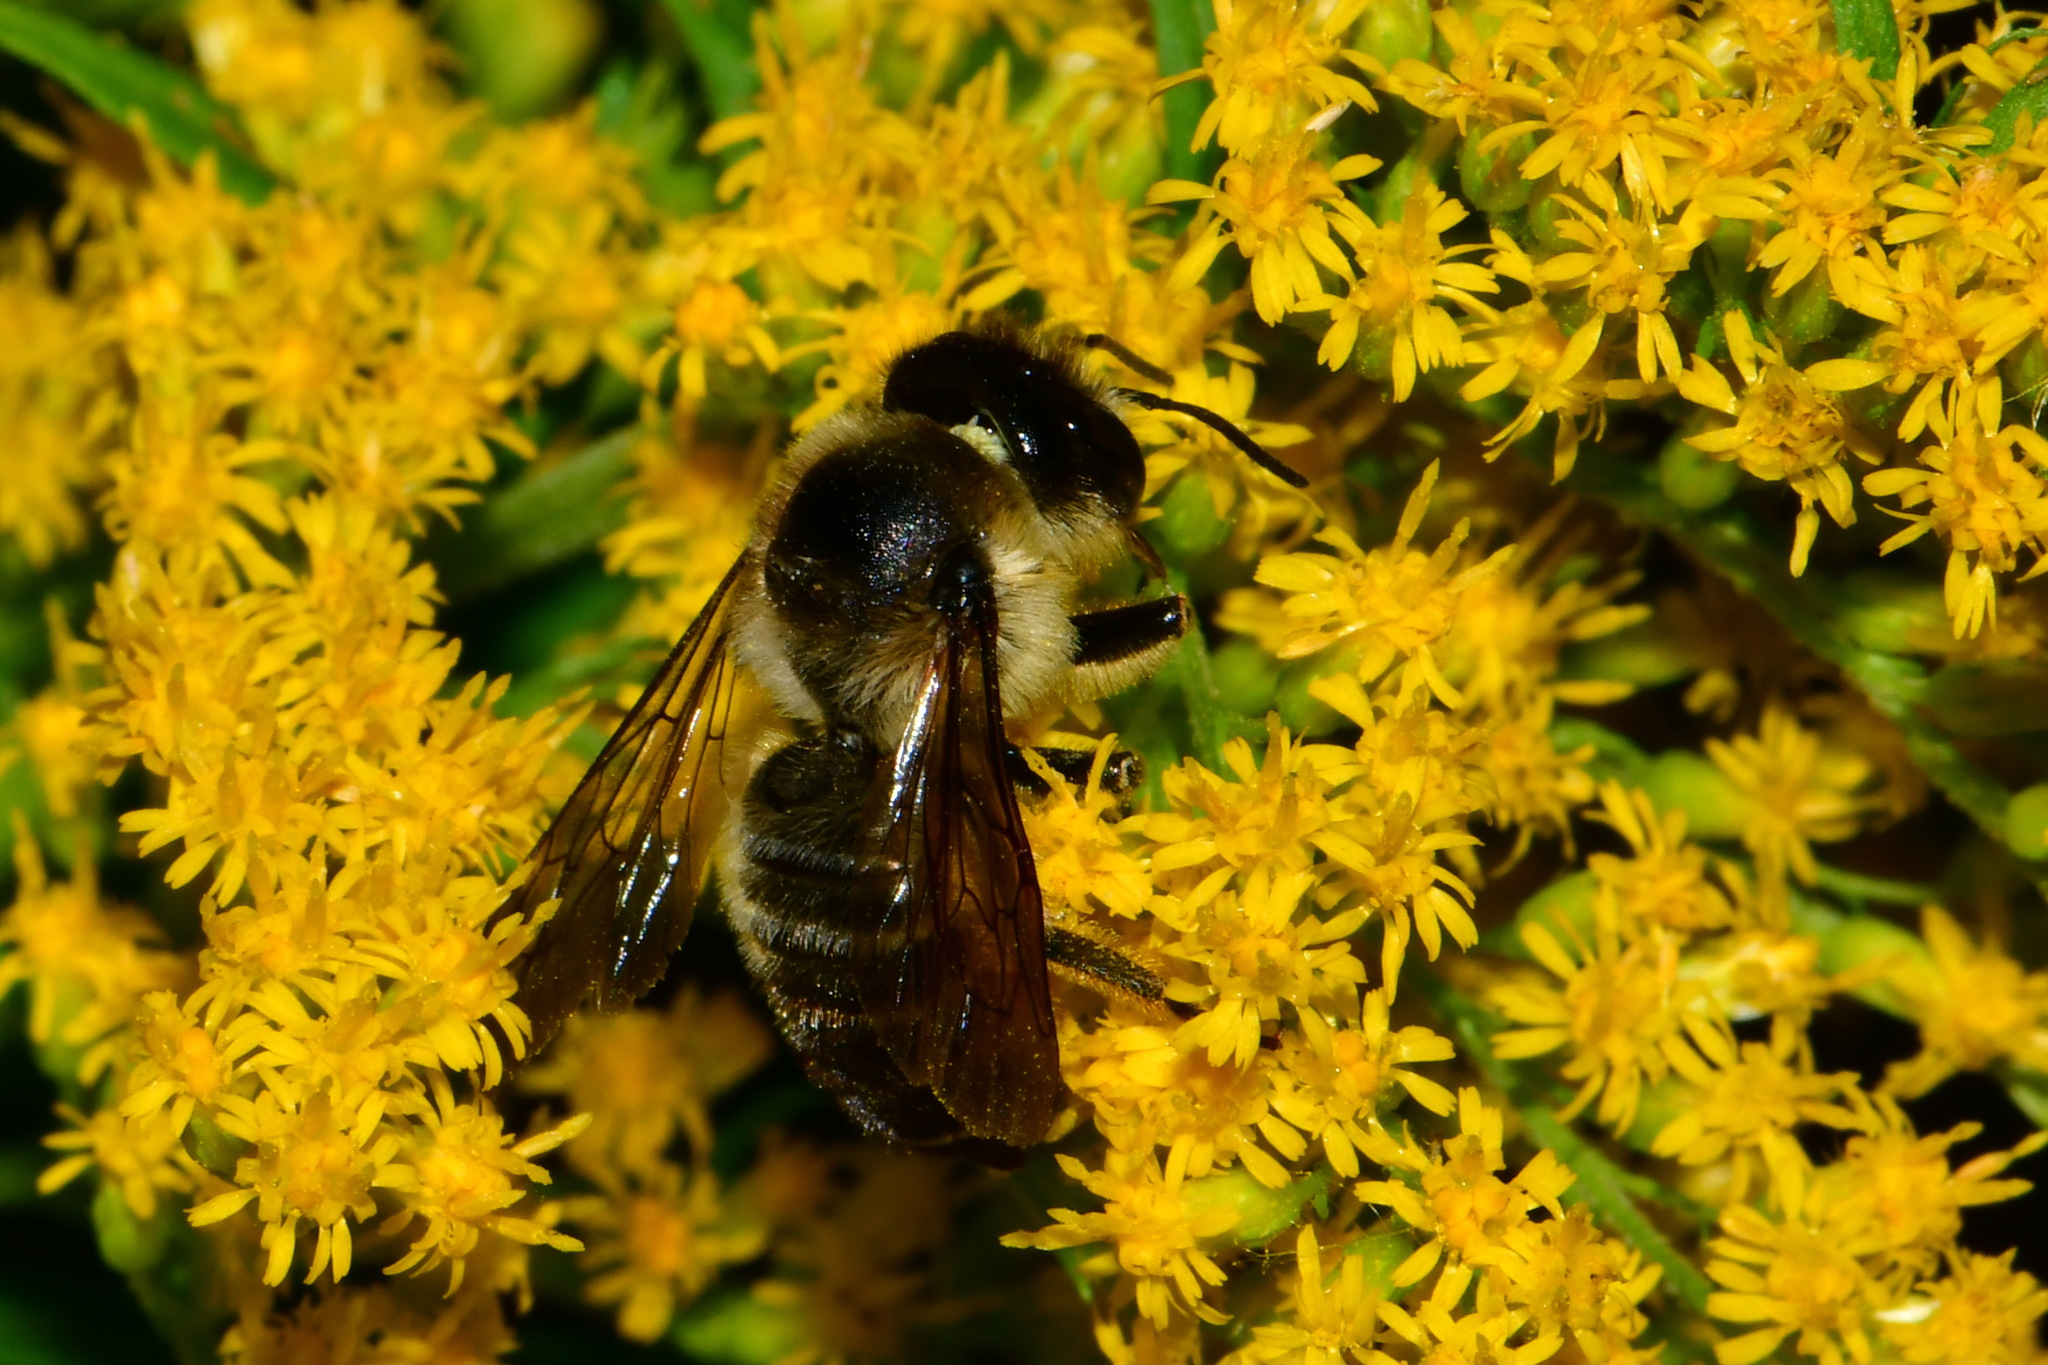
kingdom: Animalia
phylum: Arthropoda
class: Insecta
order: Hymenoptera
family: Megachilidae
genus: Megachile
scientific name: Megachile ligniseca
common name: Wood-carving leafcutter bee
